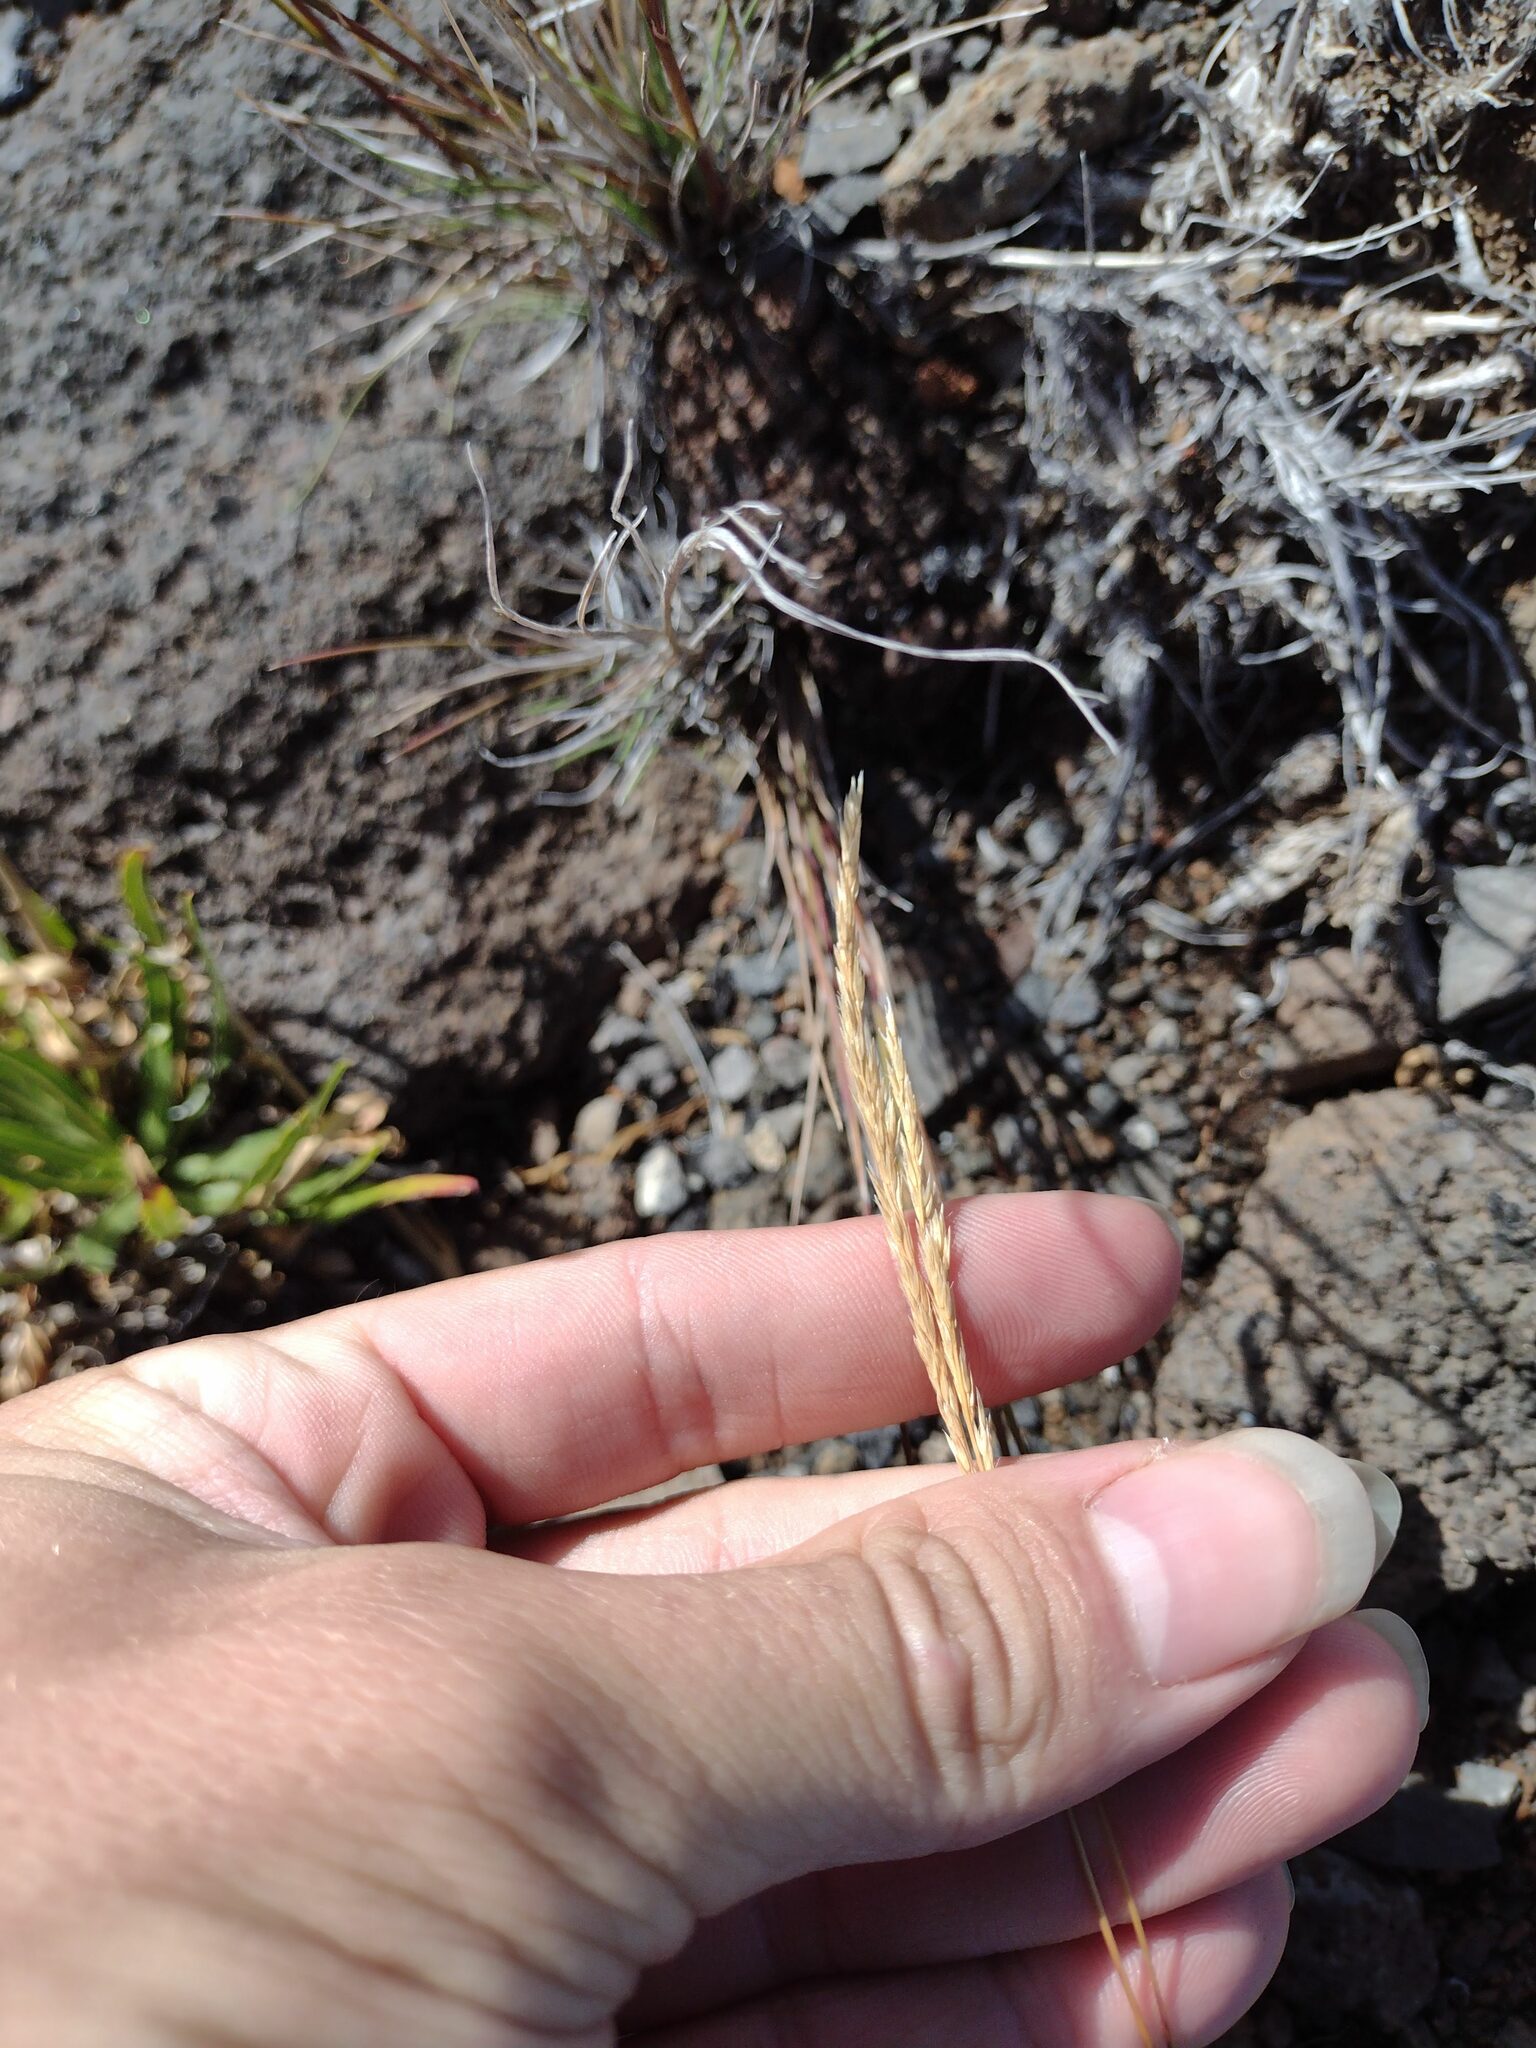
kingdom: Plantae
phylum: Tracheophyta
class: Liliopsida
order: Poales
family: Poaceae
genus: Agrostis
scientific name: Agrostis sandwicensis
